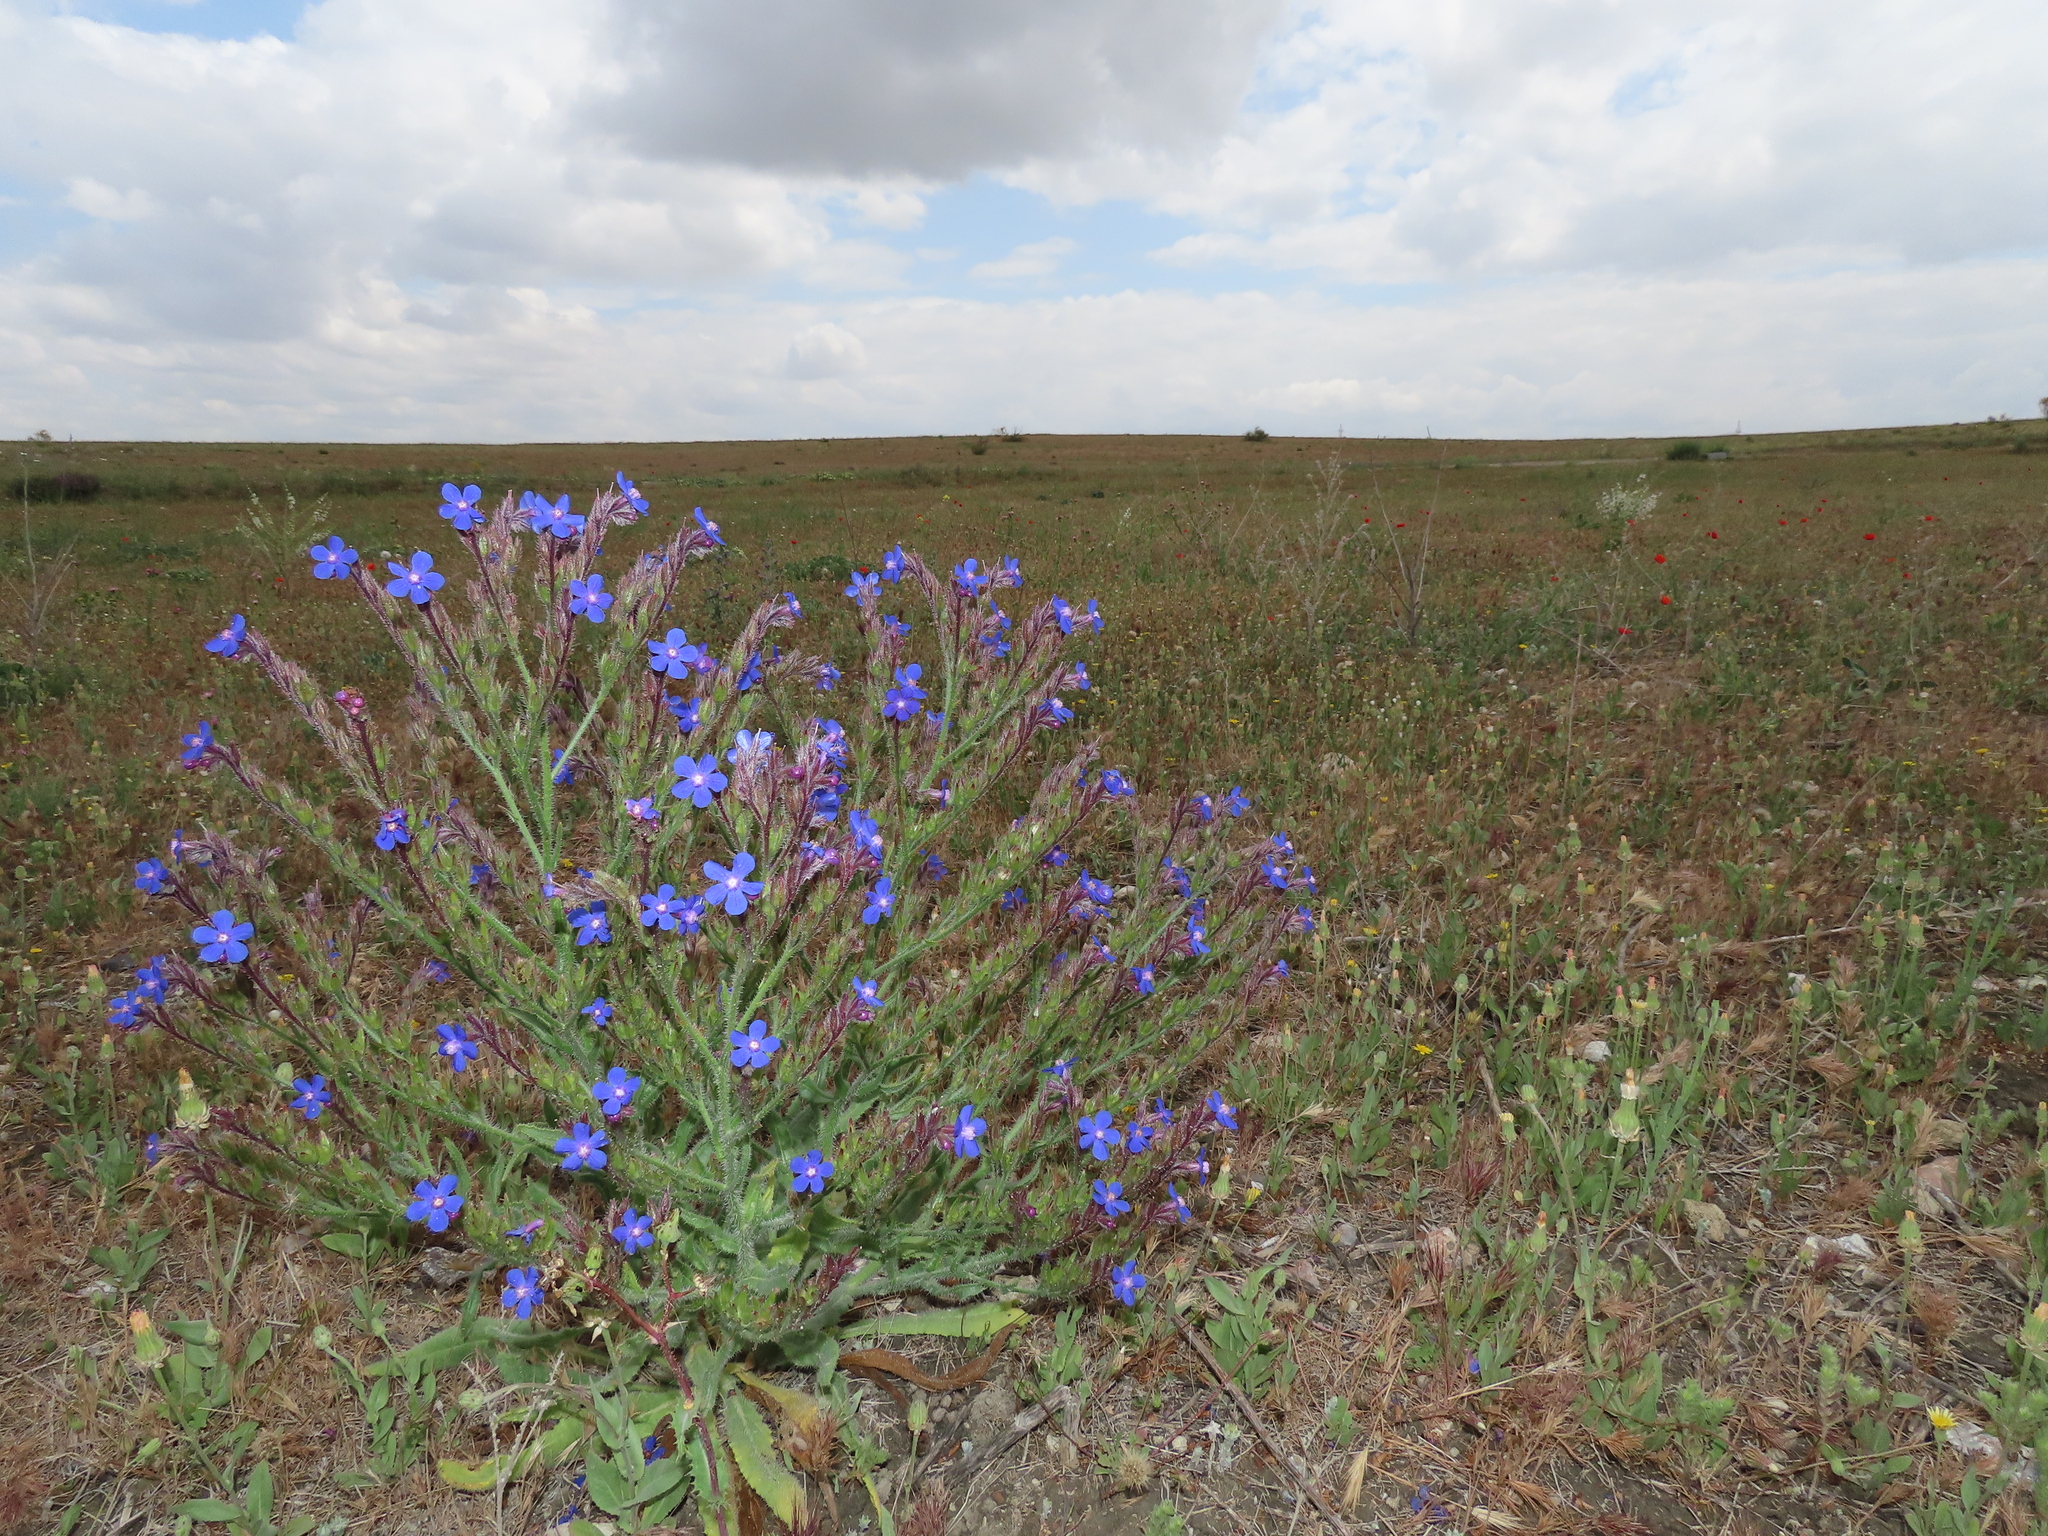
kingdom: Plantae
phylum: Tracheophyta
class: Magnoliopsida
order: Boraginales
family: Boraginaceae
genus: Anchusa
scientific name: Anchusa azurea
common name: Garden anchusa
